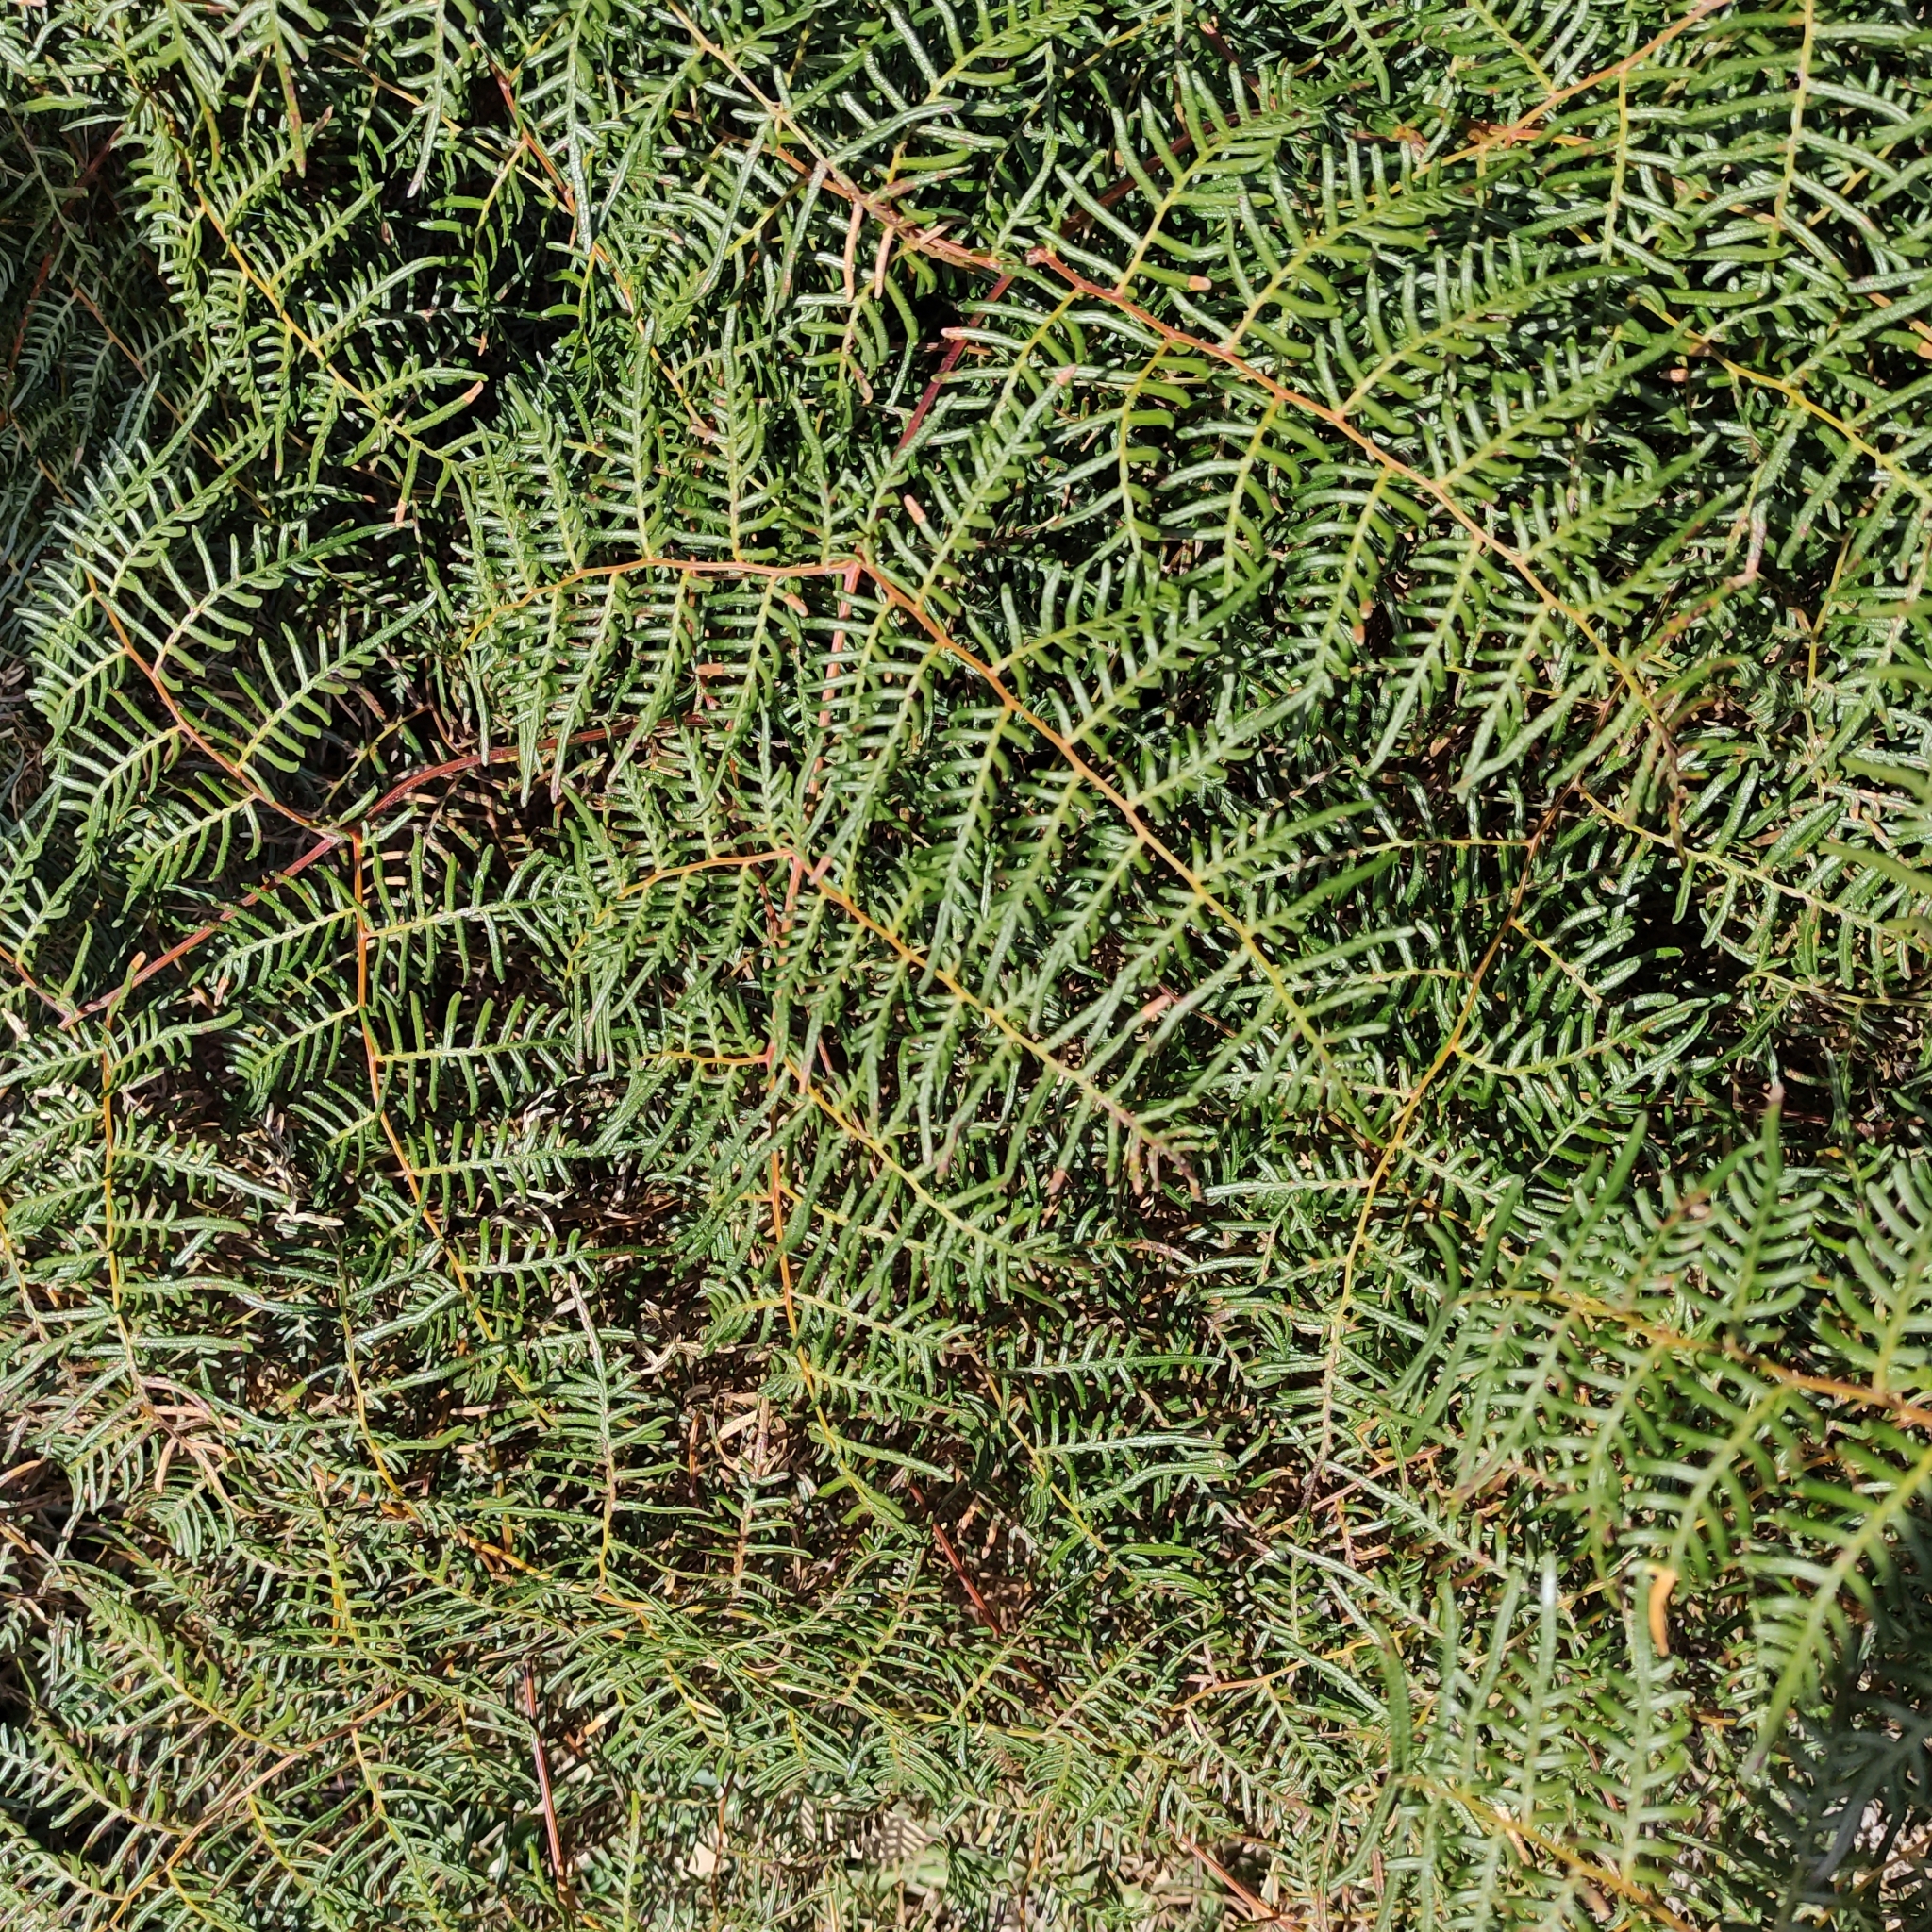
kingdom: Plantae
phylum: Tracheophyta
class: Polypodiopsida
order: Polypodiales
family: Dennstaedtiaceae
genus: Pteridium
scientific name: Pteridium esculentum
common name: Bracken fern
